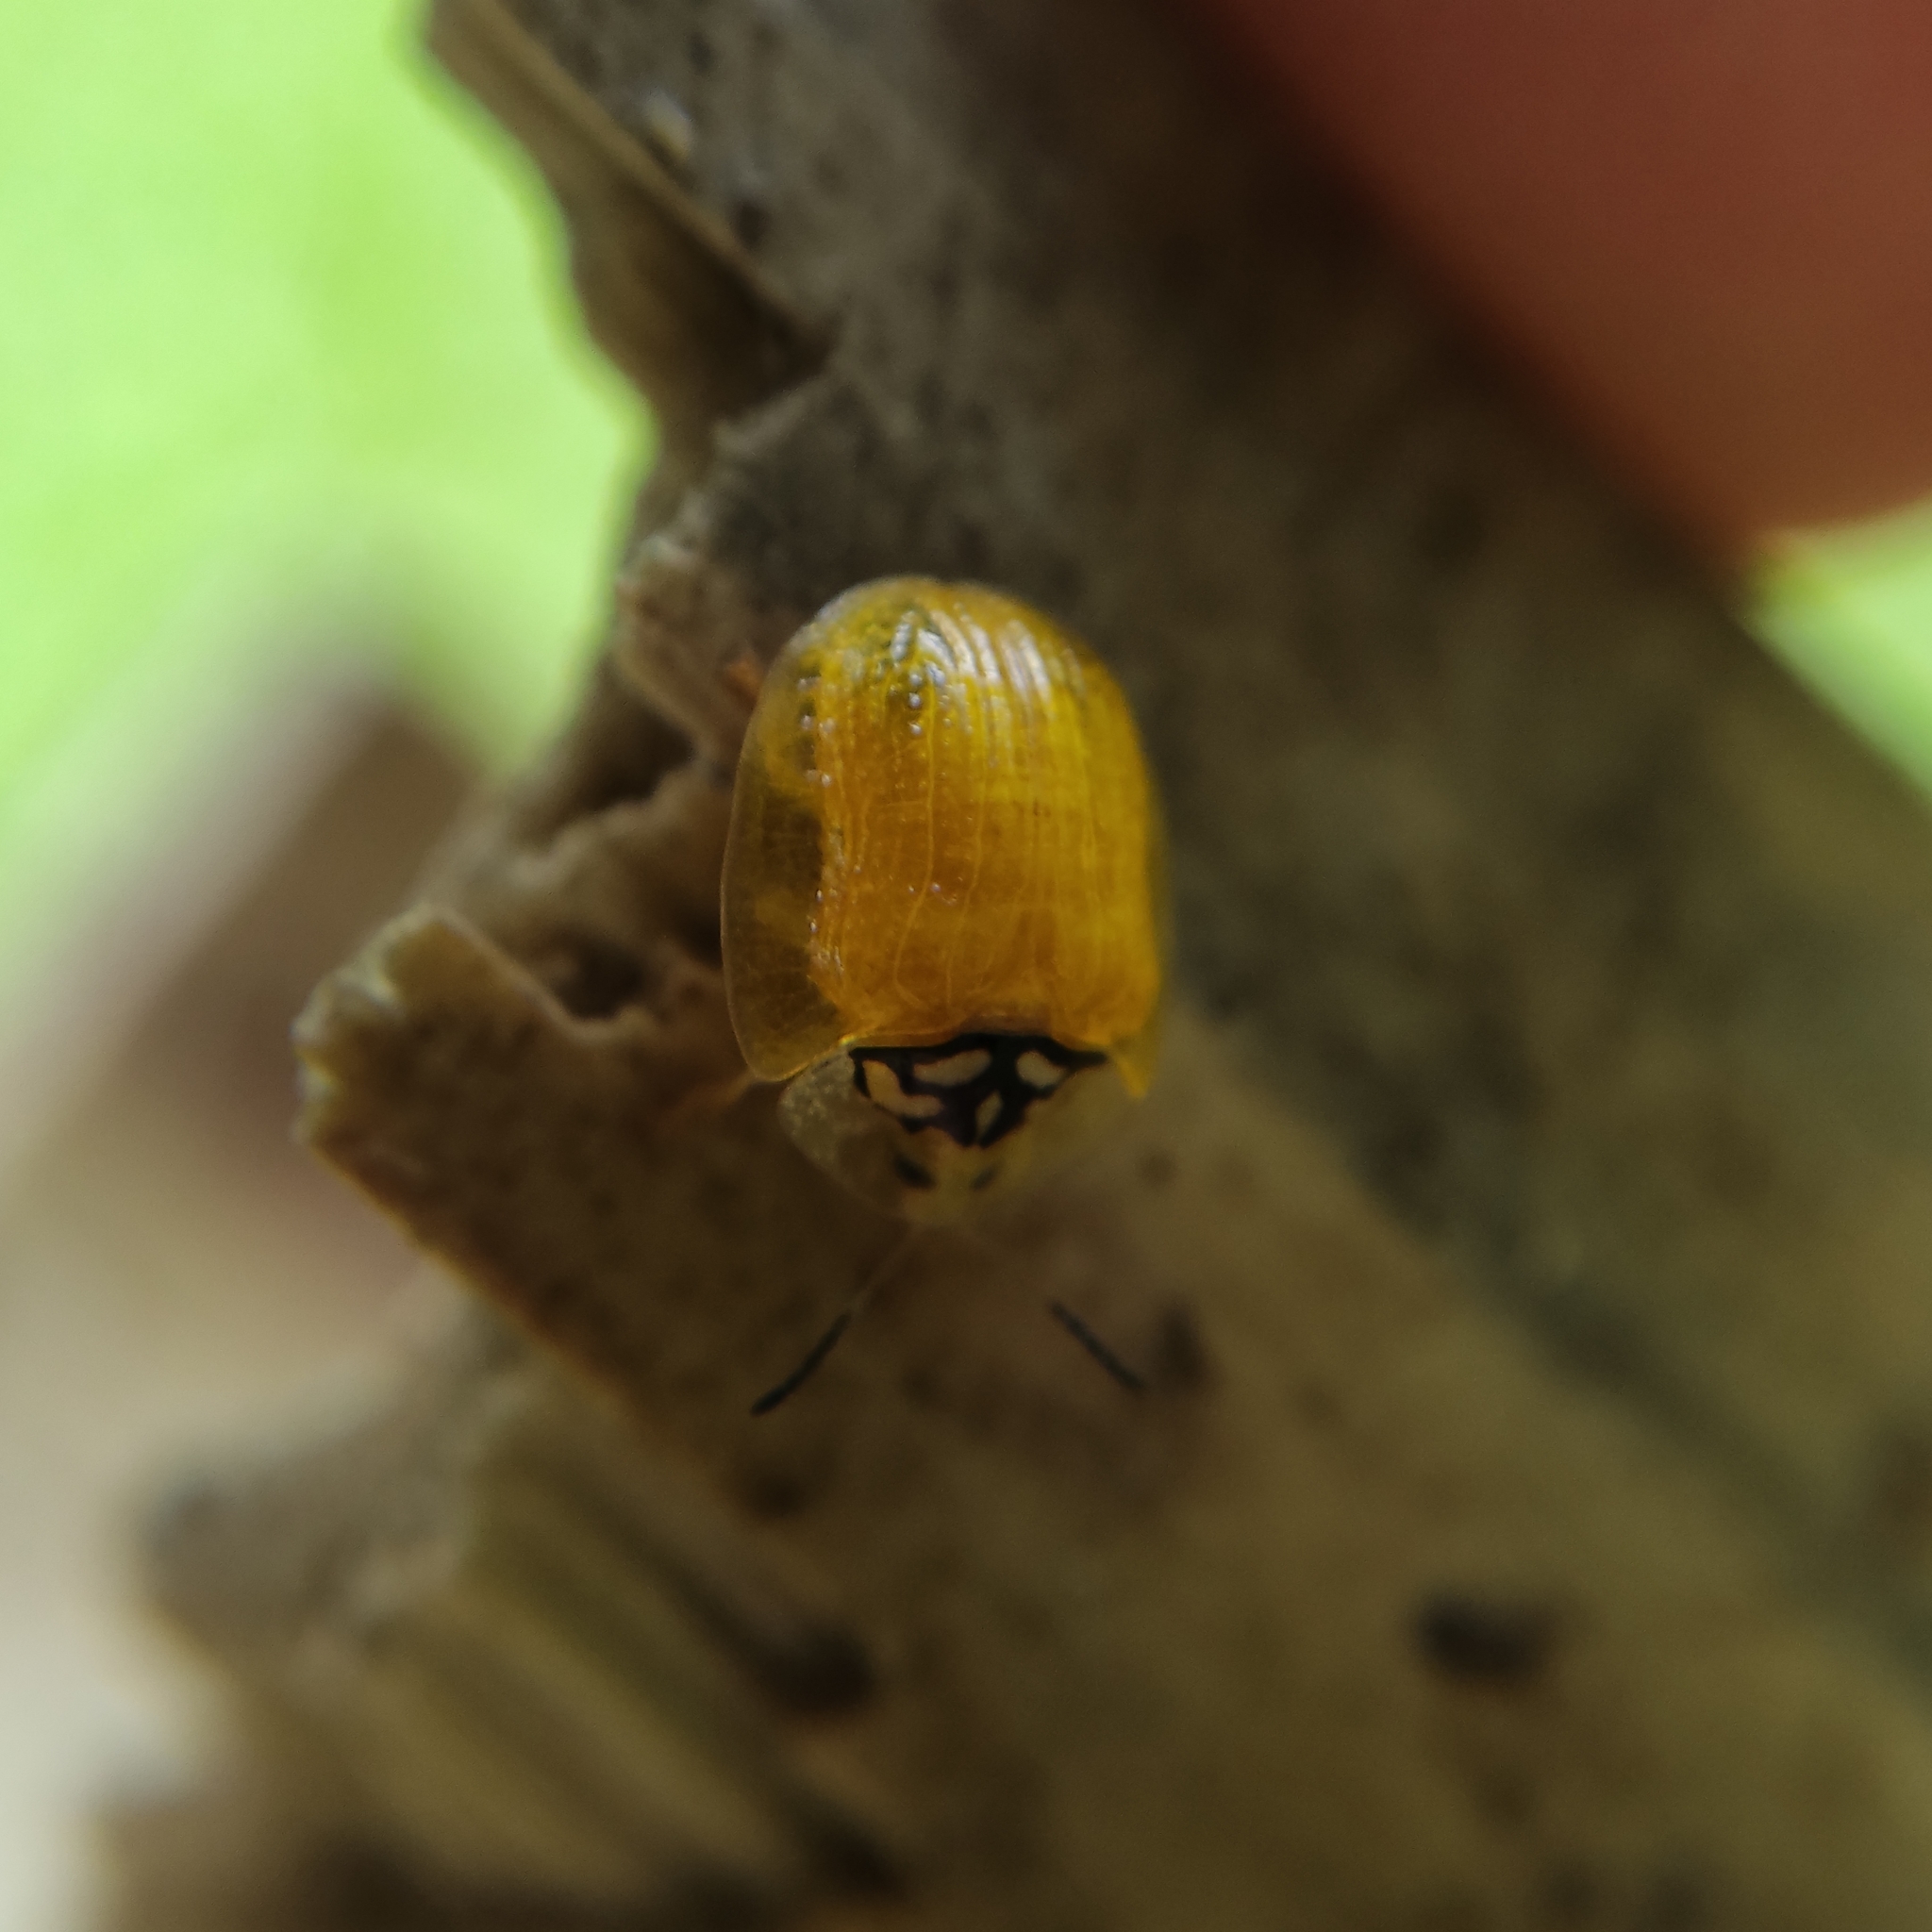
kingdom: Animalia
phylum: Arthropoda
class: Insecta
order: Coleoptera
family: Chrysomelidae
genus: Cteisella
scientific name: Cteisella confusa
